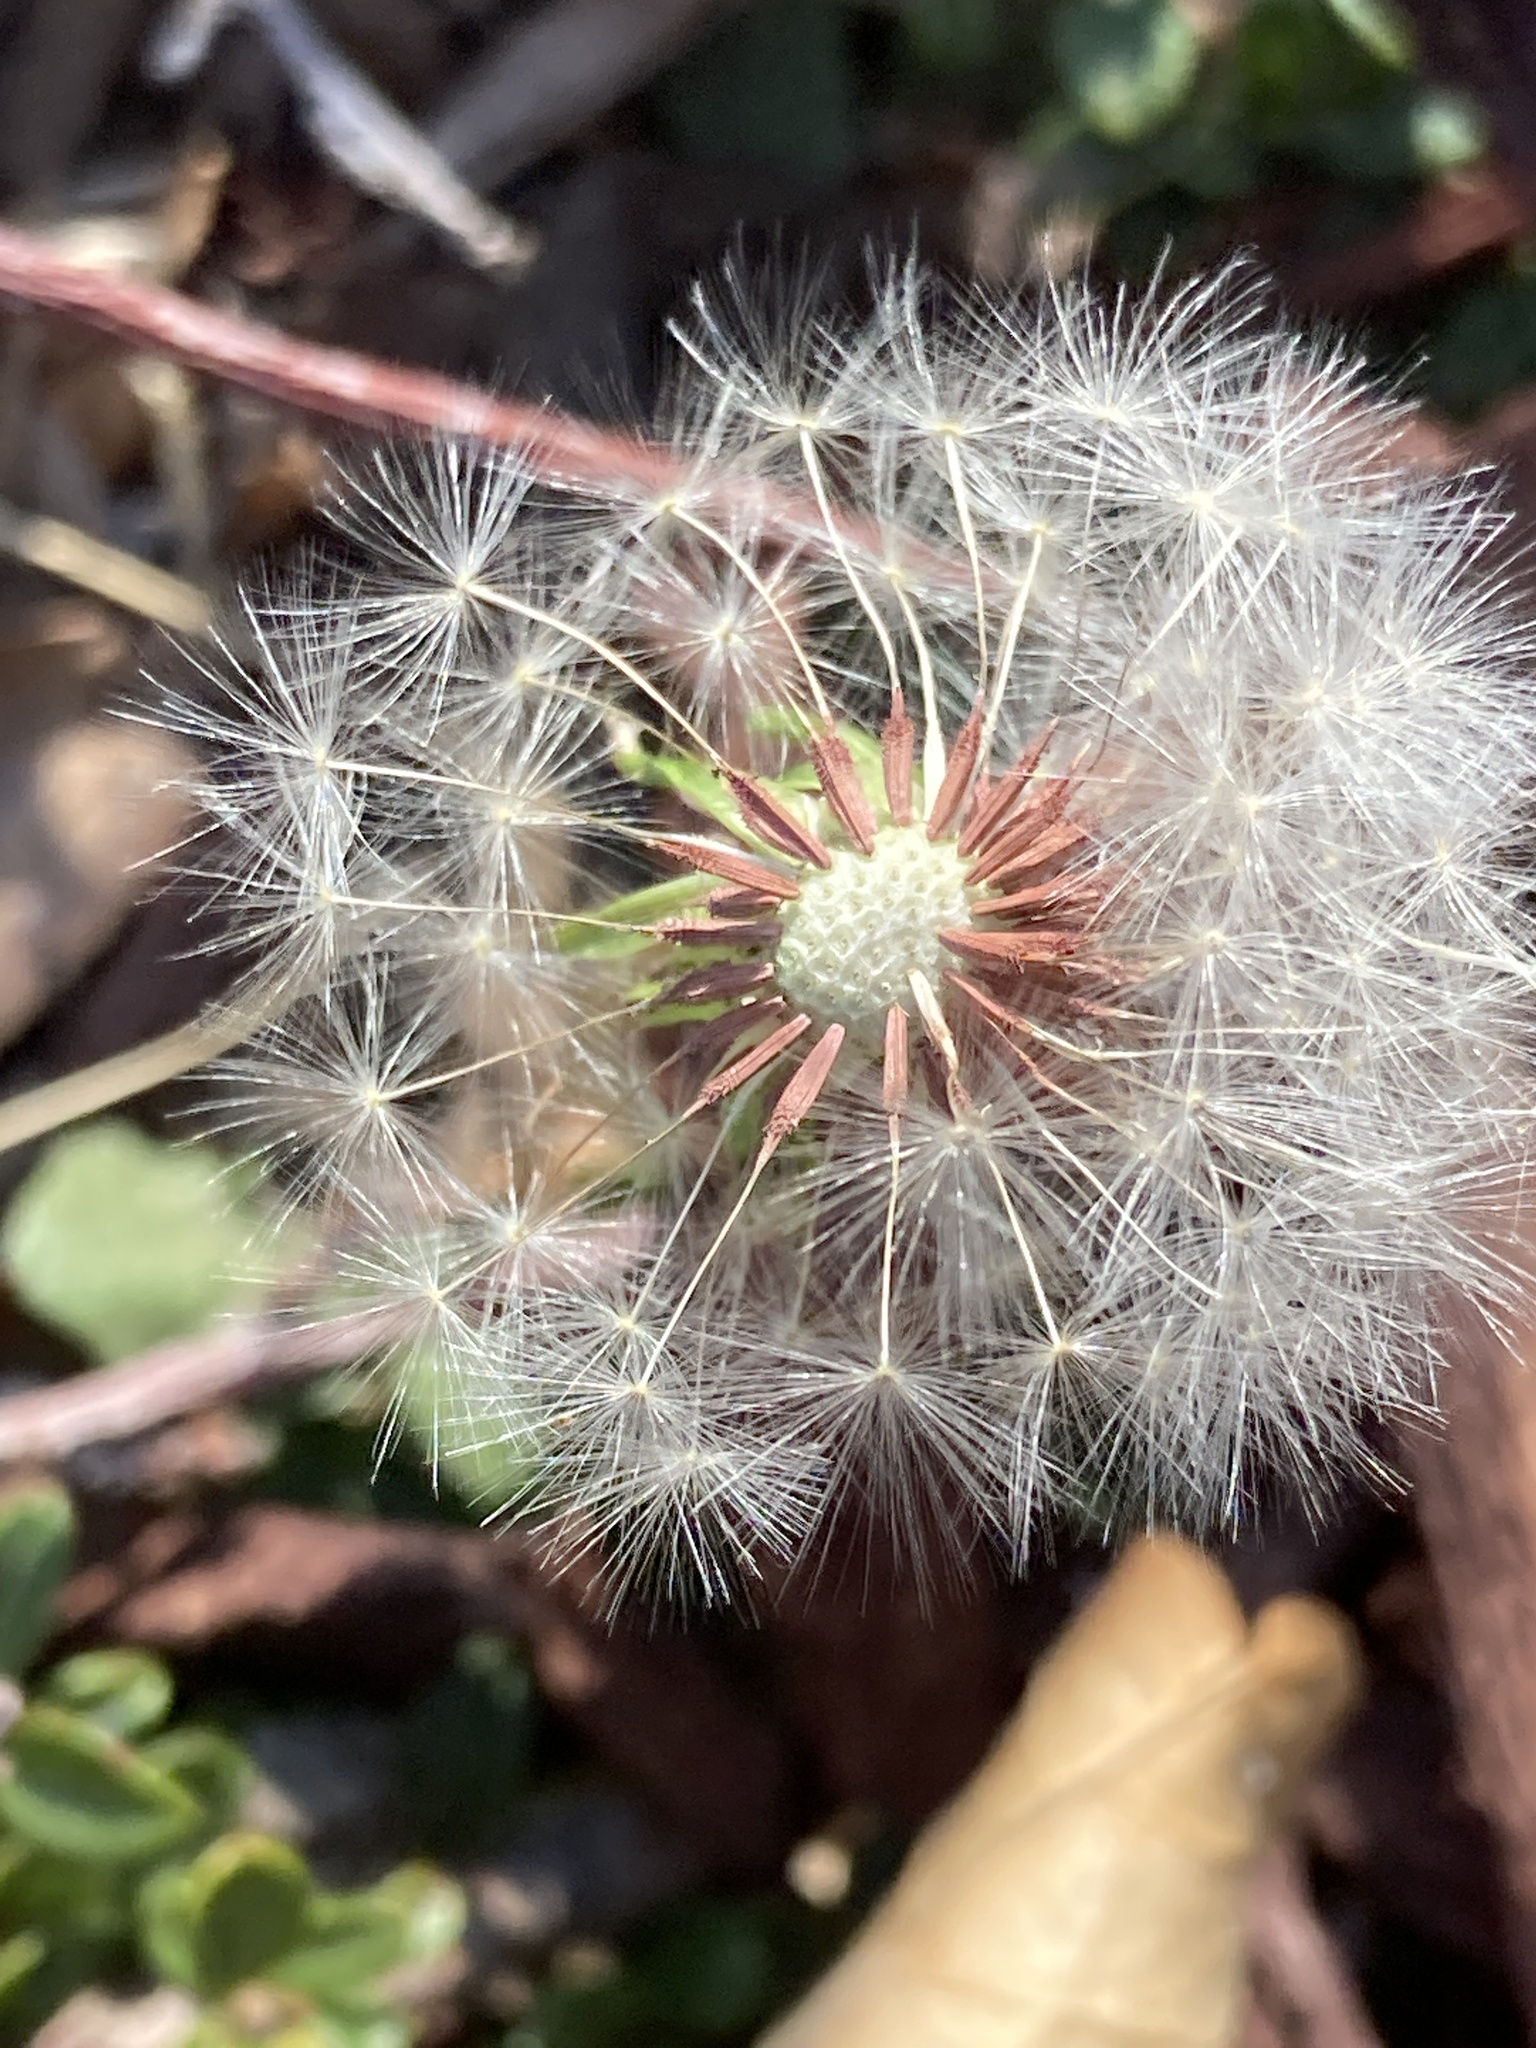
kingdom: Plantae
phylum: Tracheophyta
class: Magnoliopsida
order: Asterales
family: Asteraceae
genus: Taraxacum
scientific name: Taraxacum erythrospermum
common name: Rock dandelion
